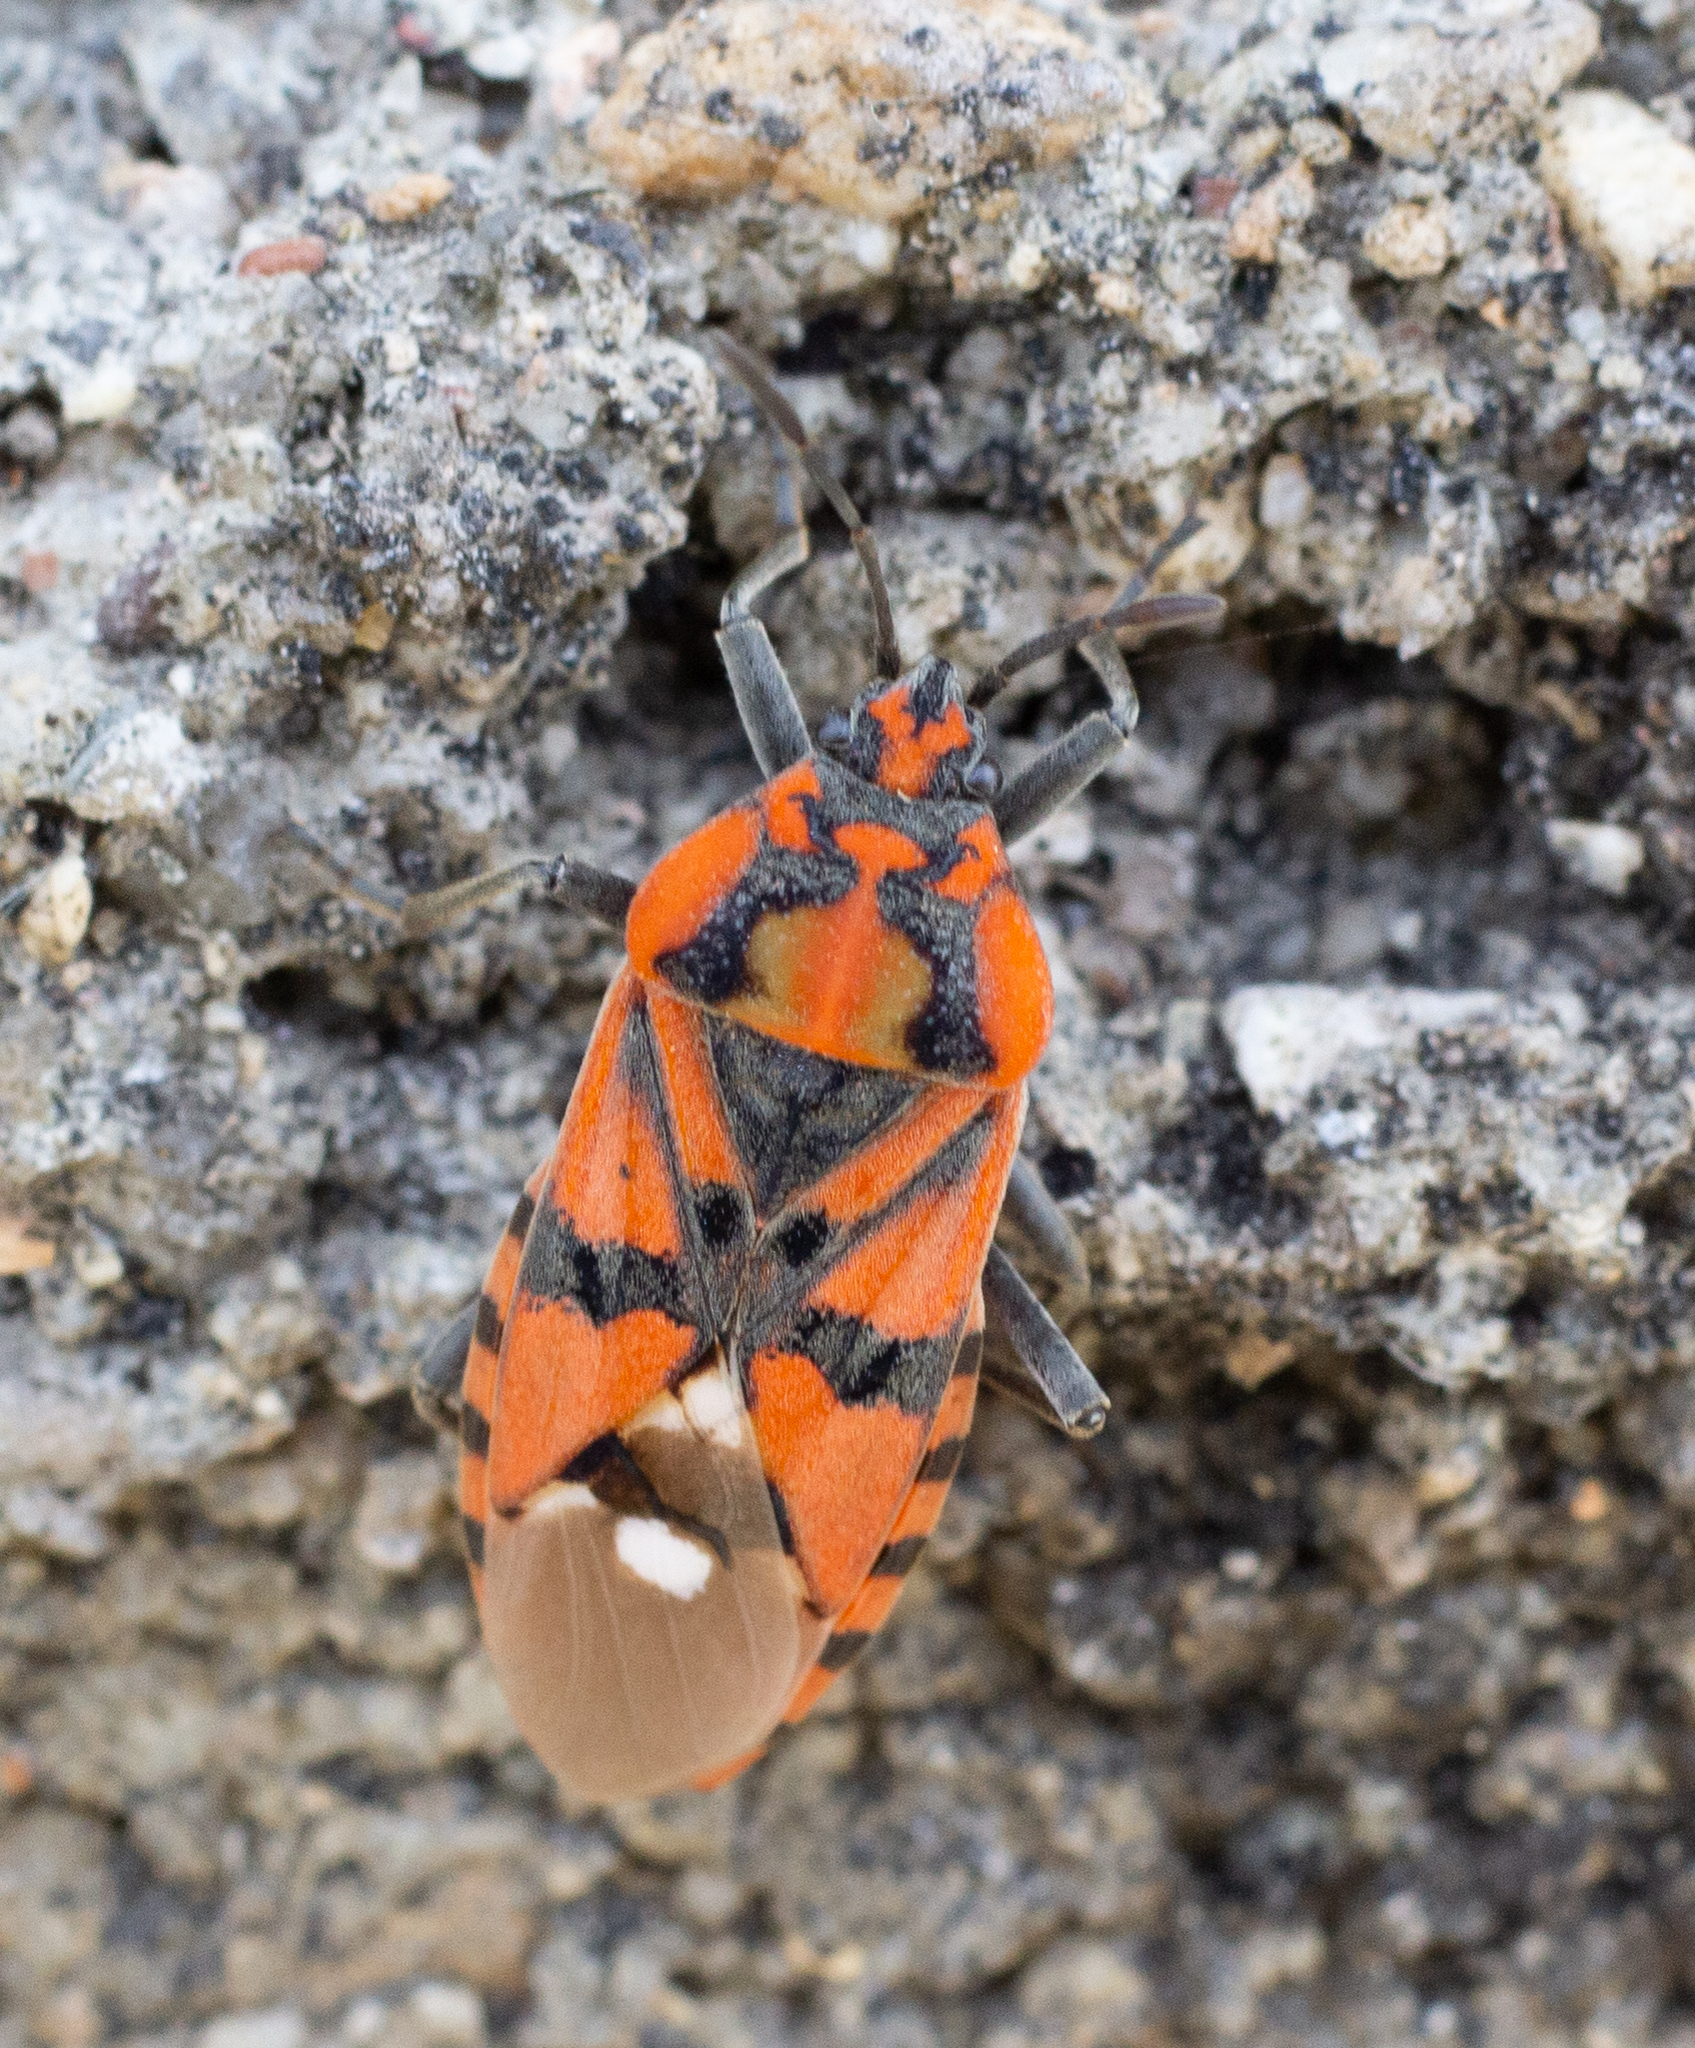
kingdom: Animalia
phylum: Arthropoda
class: Insecta
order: Hemiptera
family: Lygaeidae
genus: Spilostethus
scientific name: Spilostethus pandurus
